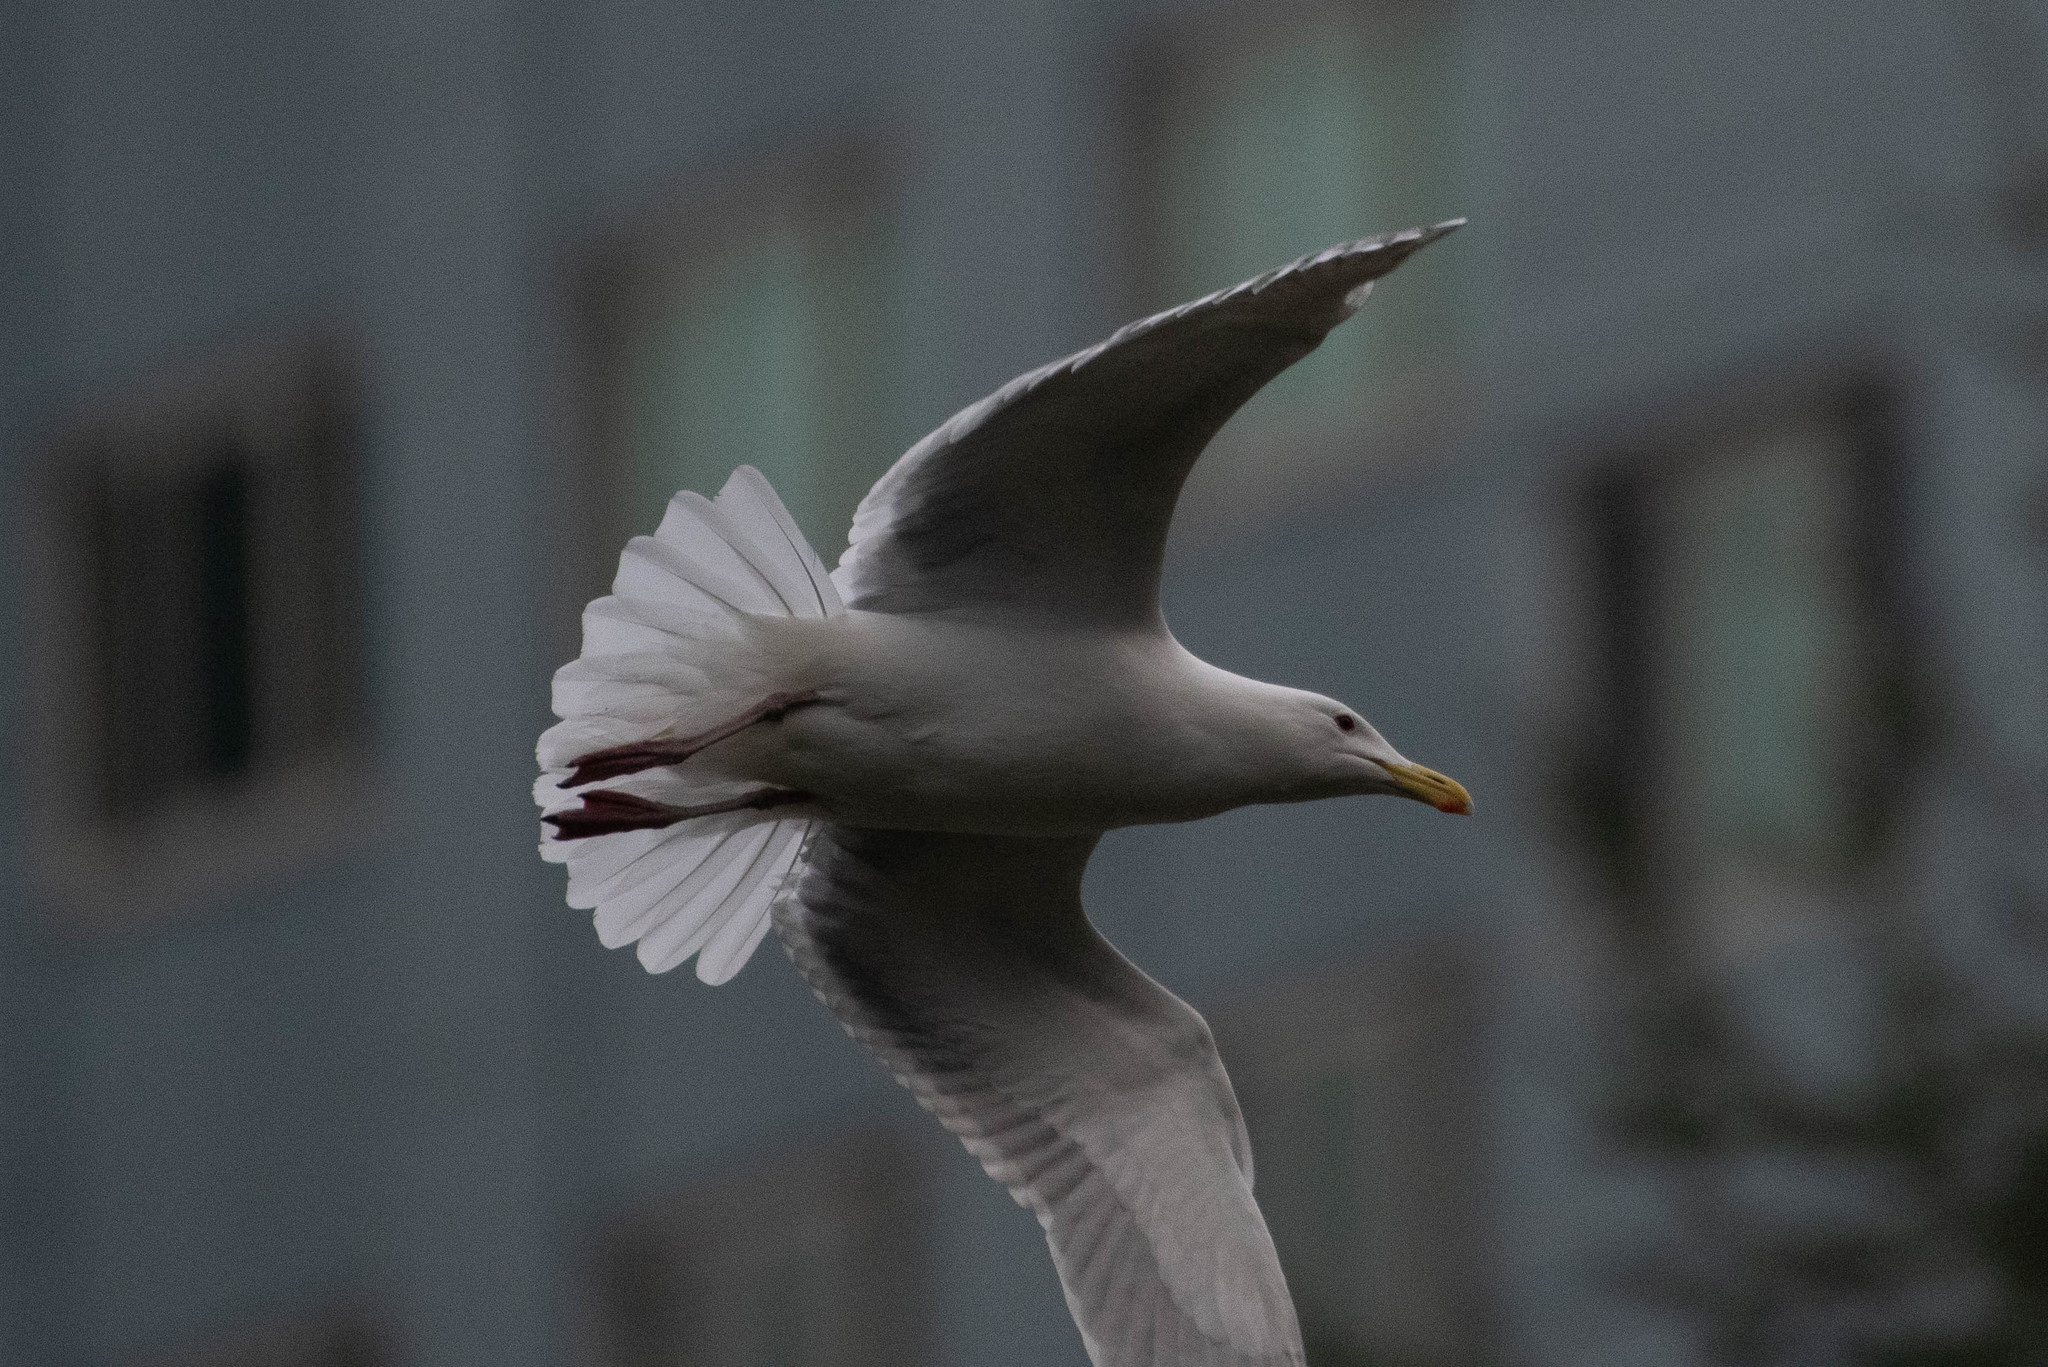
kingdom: Animalia
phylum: Chordata
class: Aves
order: Charadriiformes
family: Laridae
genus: Larus
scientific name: Larus
